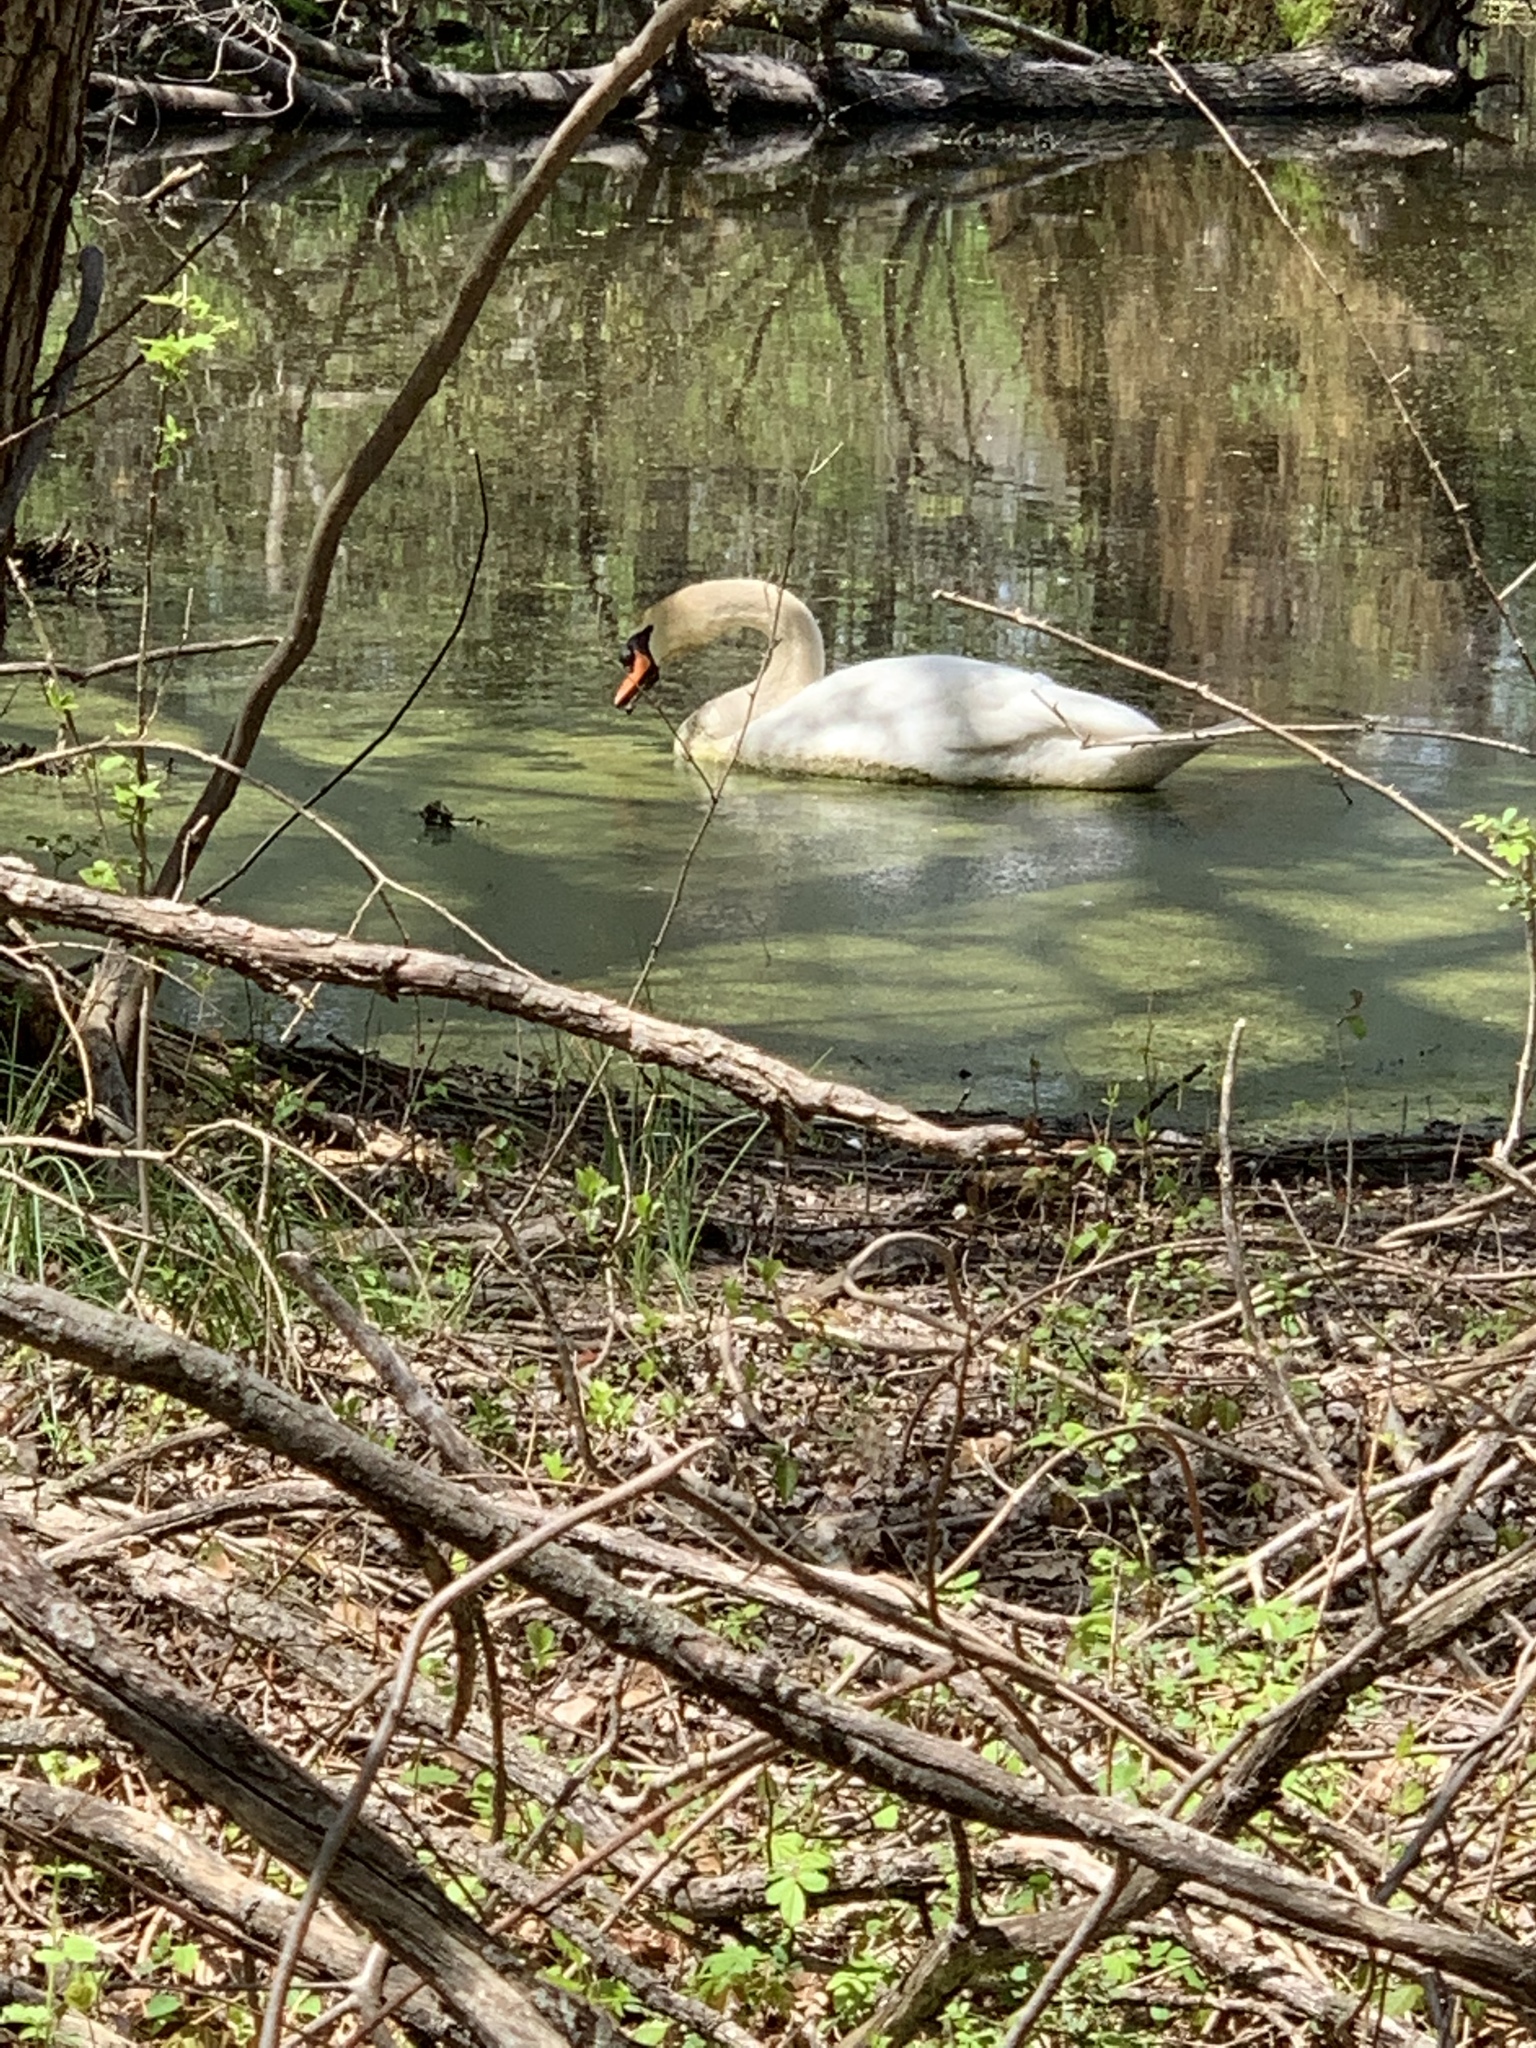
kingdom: Animalia
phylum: Chordata
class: Aves
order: Anseriformes
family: Anatidae
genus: Cygnus
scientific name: Cygnus olor
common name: Mute swan
